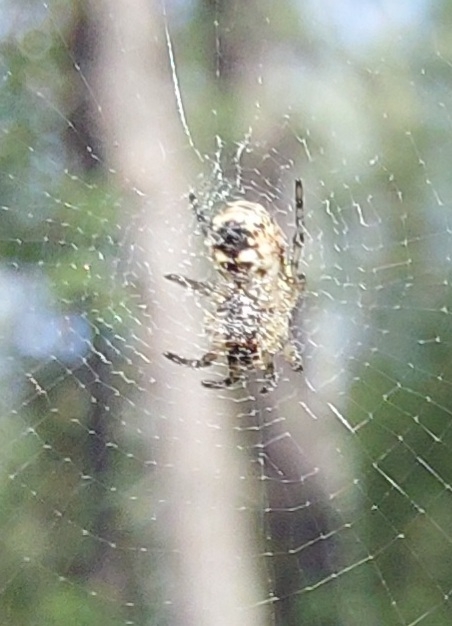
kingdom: Animalia
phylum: Arthropoda
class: Arachnida
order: Araneae
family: Araneidae
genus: Cyclosa
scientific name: Cyclosa conica
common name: Conical trashline orbweaver
